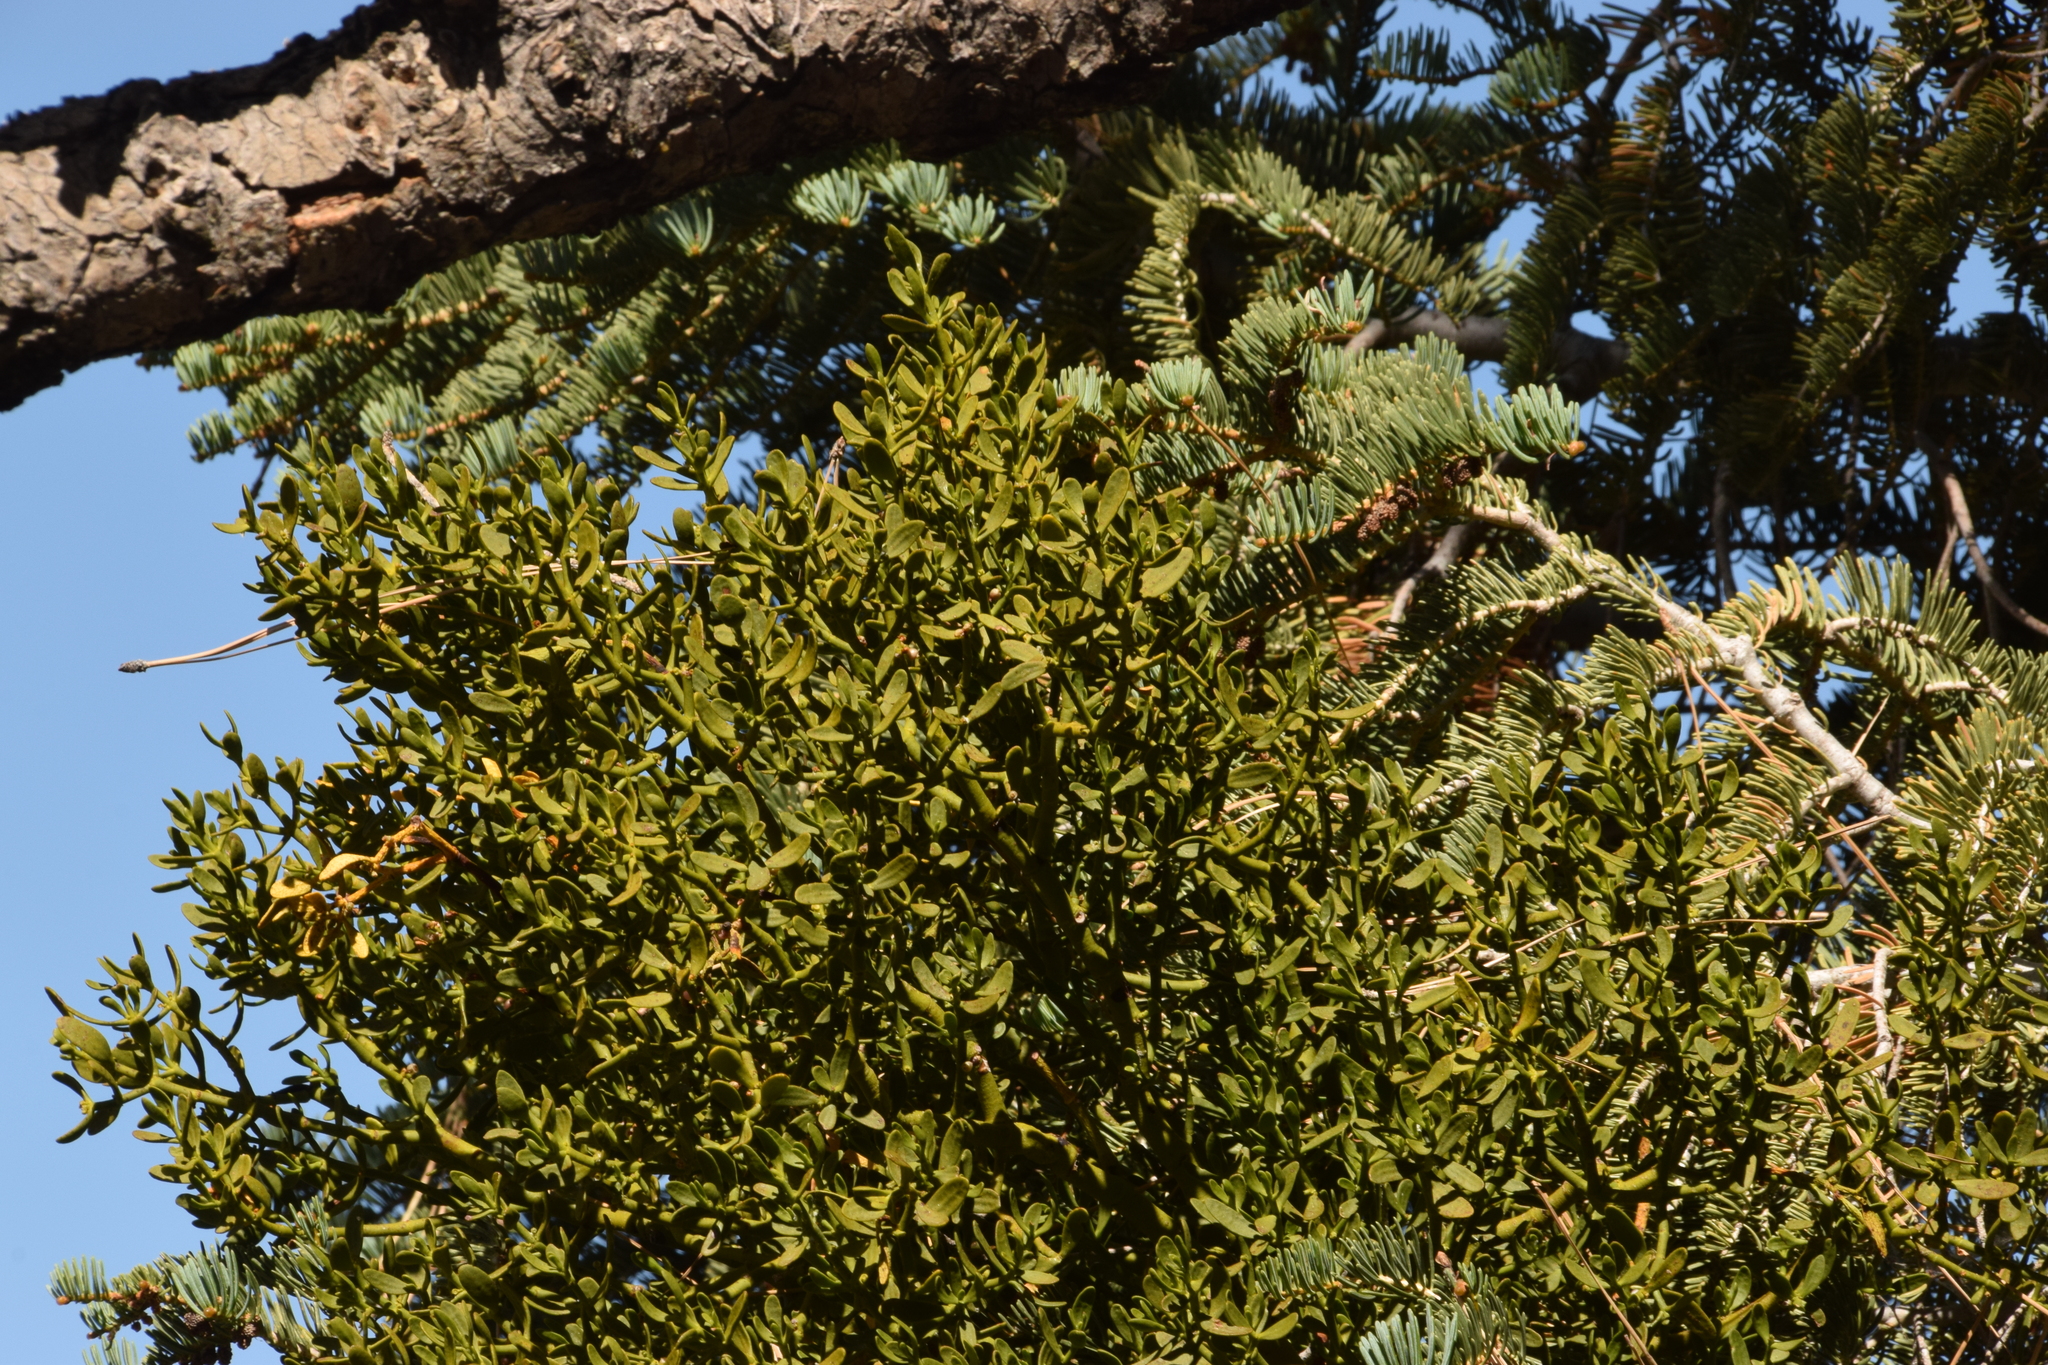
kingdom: Plantae
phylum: Tracheophyta
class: Magnoliopsida
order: Santalales
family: Viscaceae
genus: Phoradendron
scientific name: Phoradendron pauciflorum
